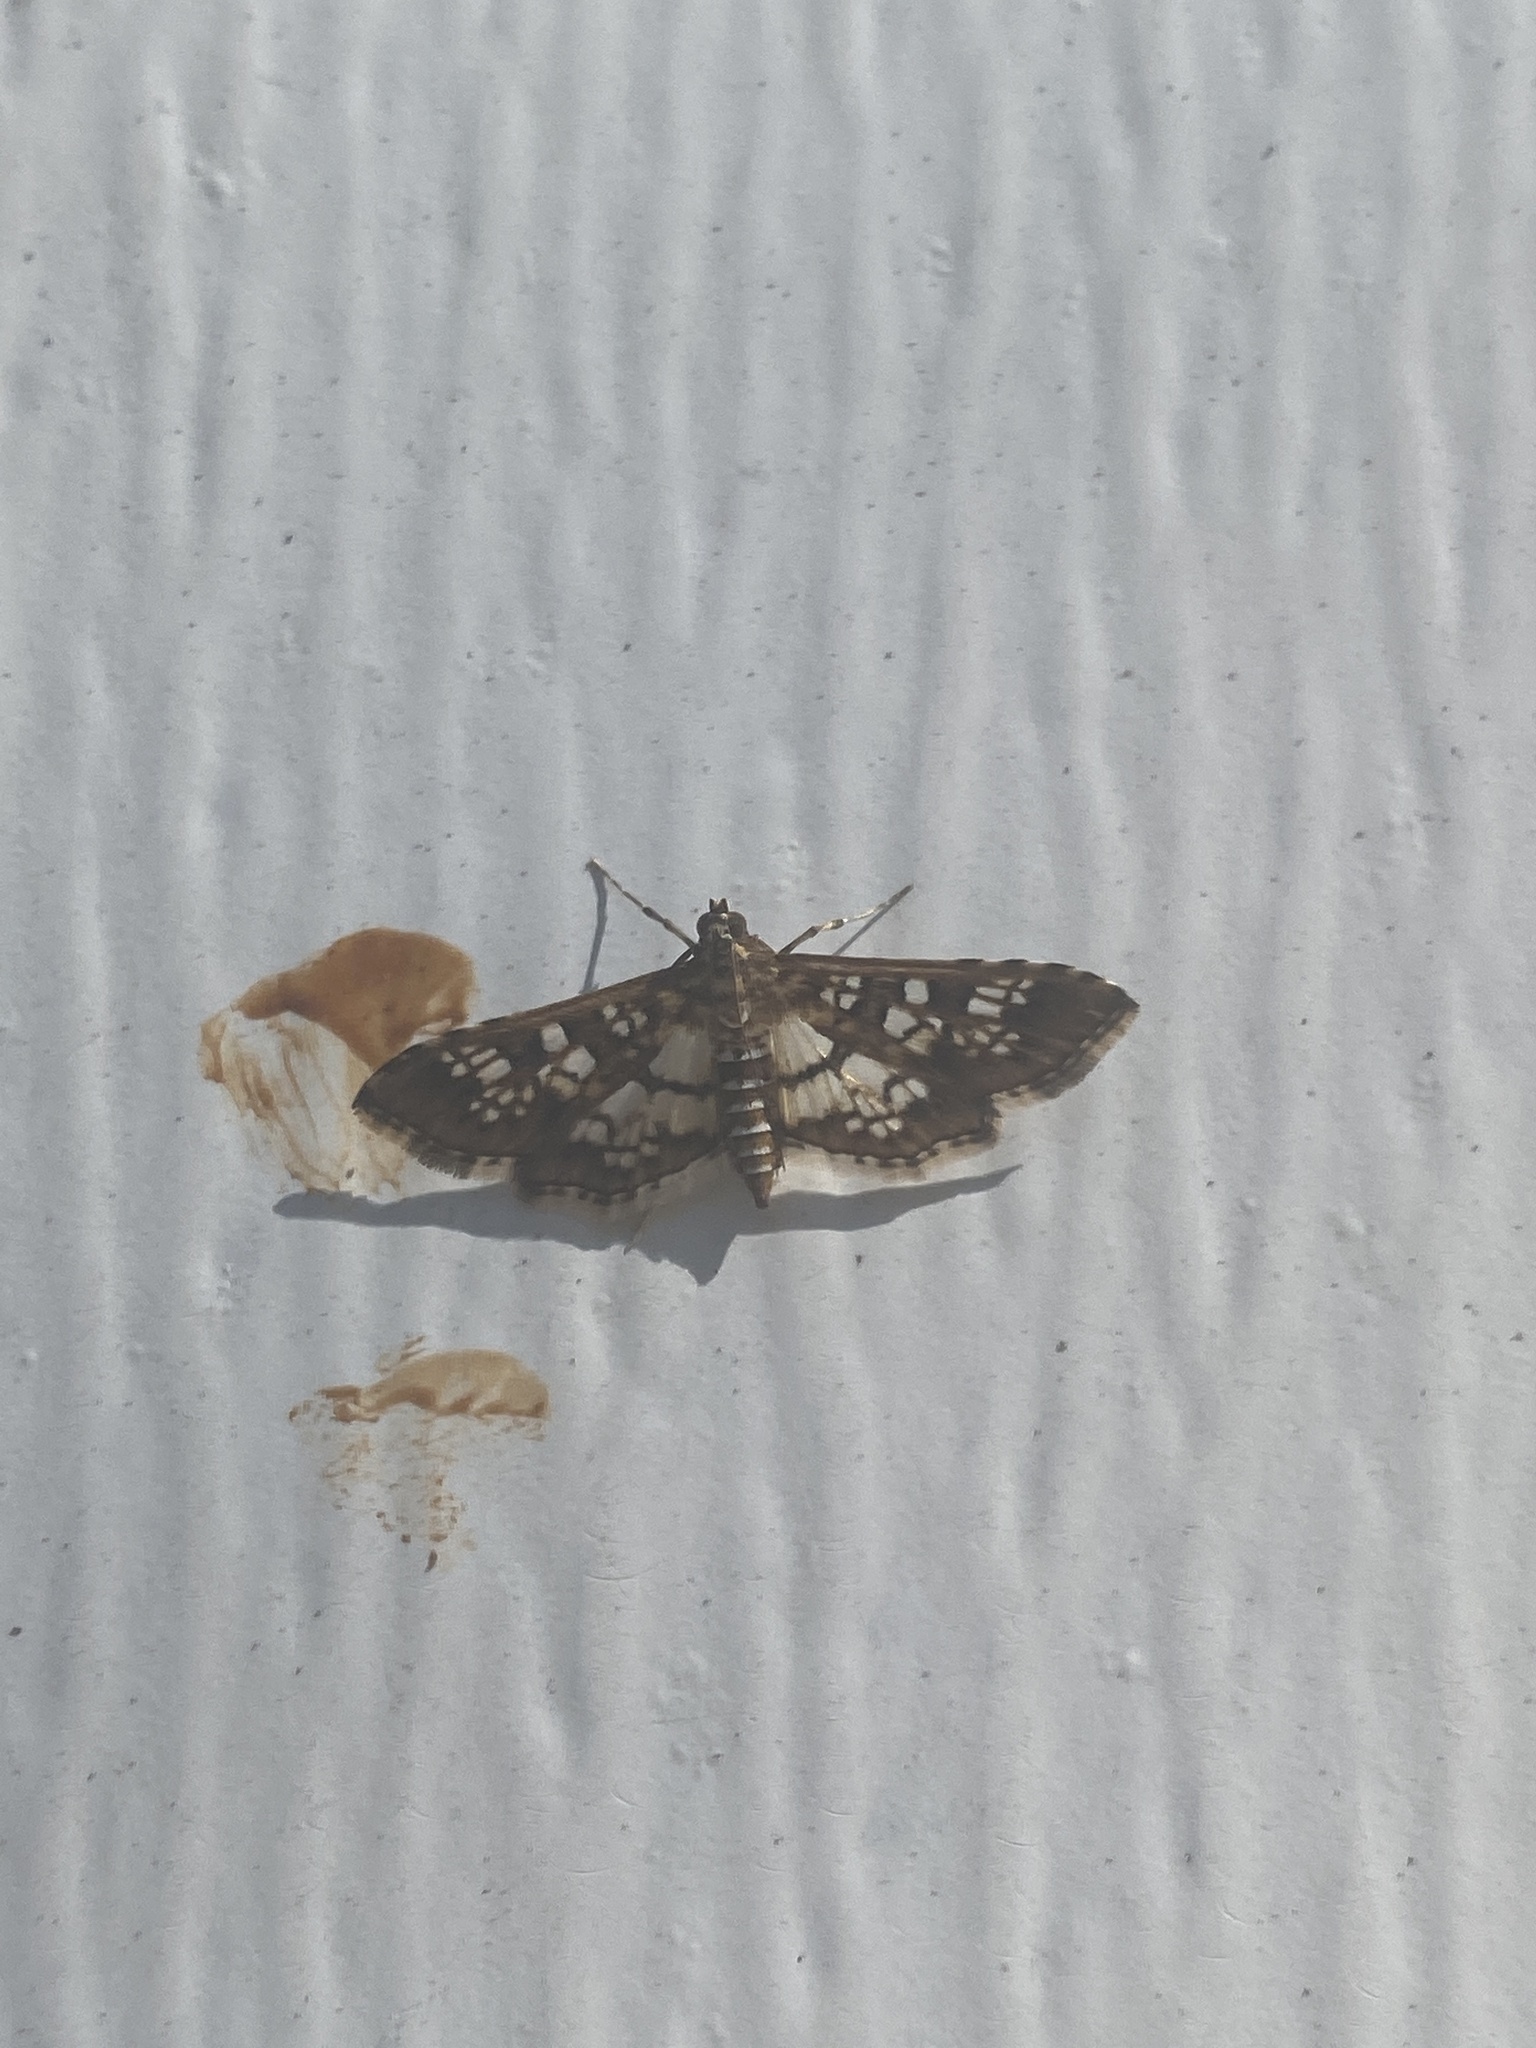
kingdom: Animalia
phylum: Arthropoda
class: Insecta
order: Lepidoptera
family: Crambidae
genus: Samea
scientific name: Samea ecclesialis
